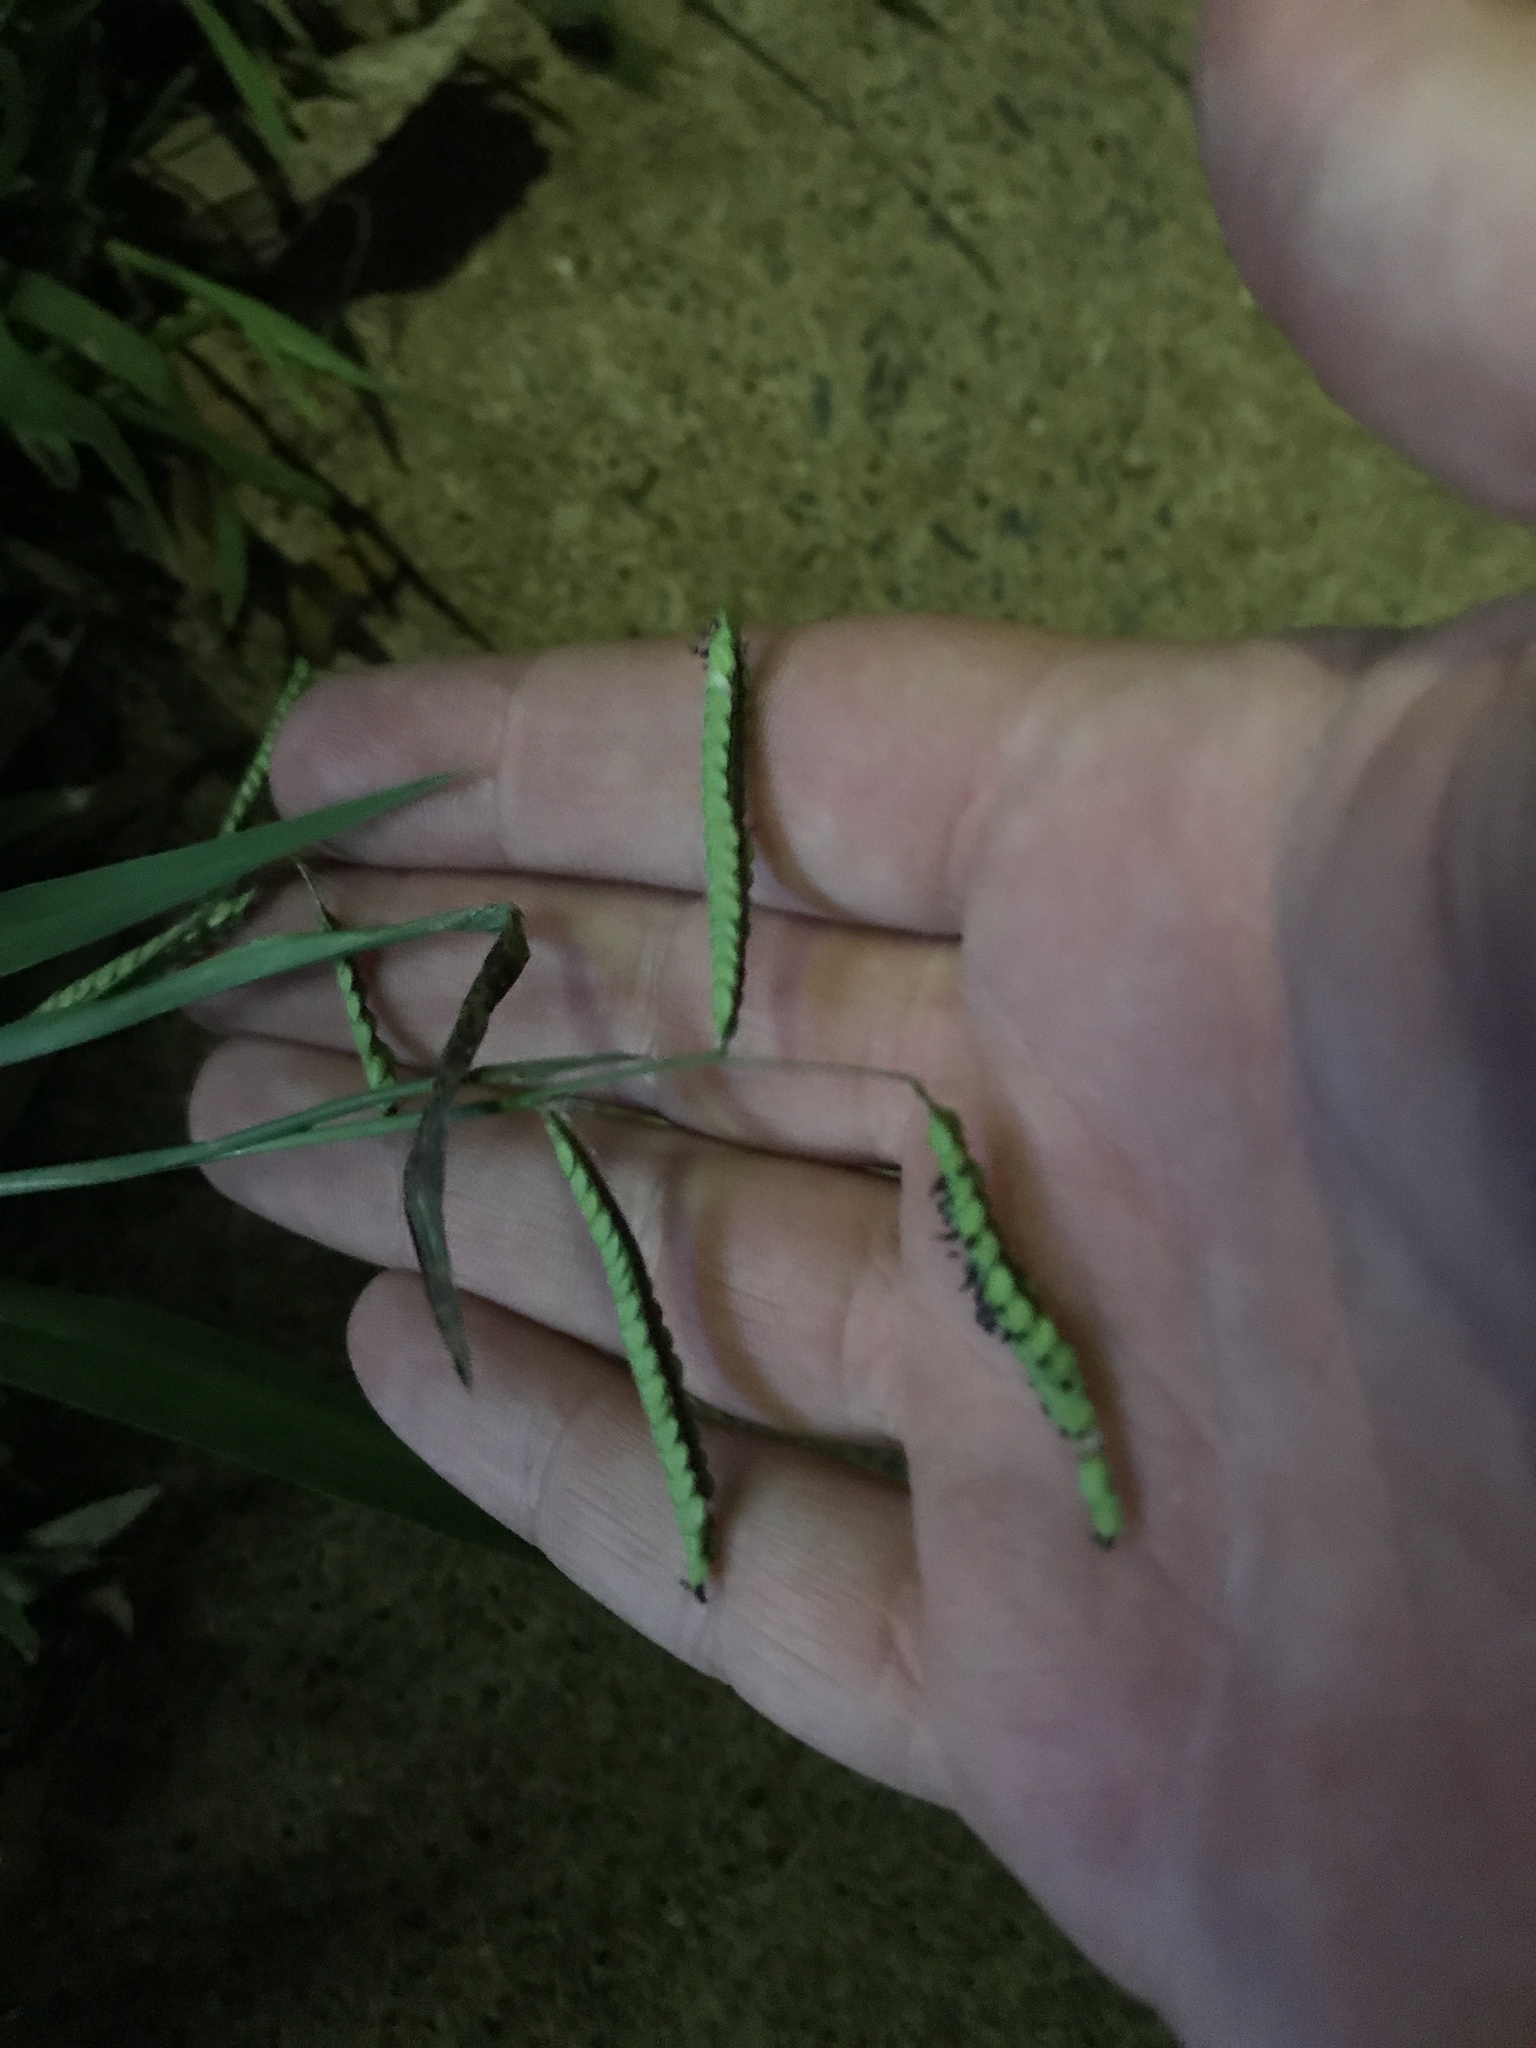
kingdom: Plantae
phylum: Tracheophyta
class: Liliopsida
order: Poales
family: Poaceae
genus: Paspalum
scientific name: Paspalum dilatatum
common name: Dallisgrass
